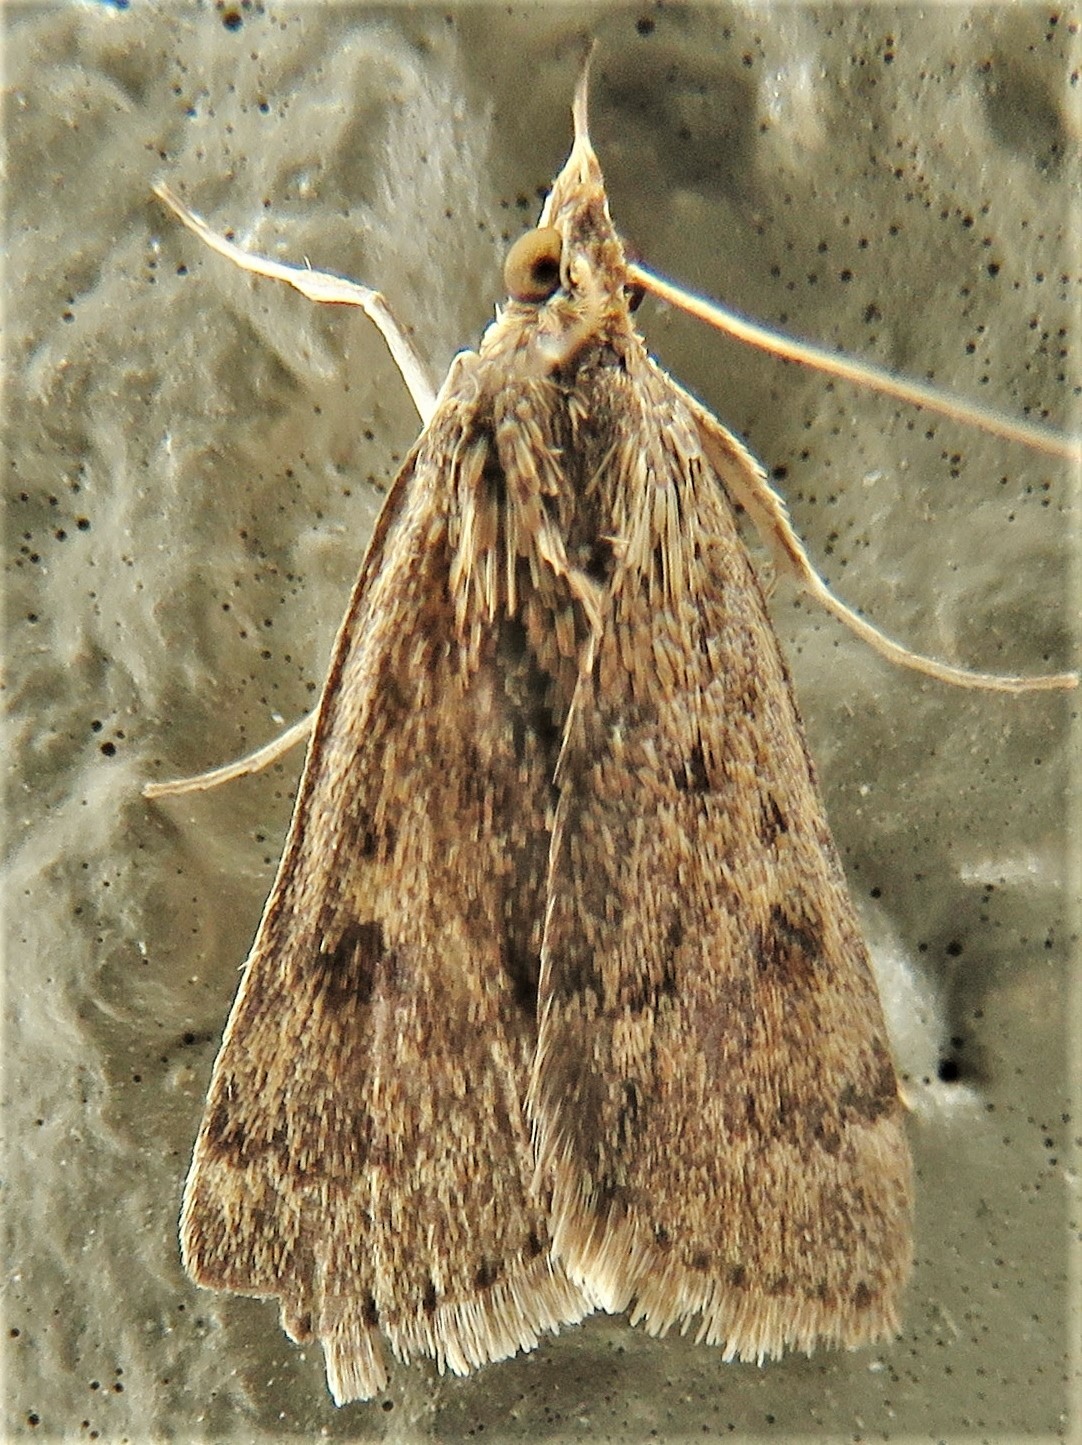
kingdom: Animalia
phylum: Arthropoda
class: Insecta
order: Lepidoptera
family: Crambidae
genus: Achyra
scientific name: Achyra rantalis
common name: Garden webworm
